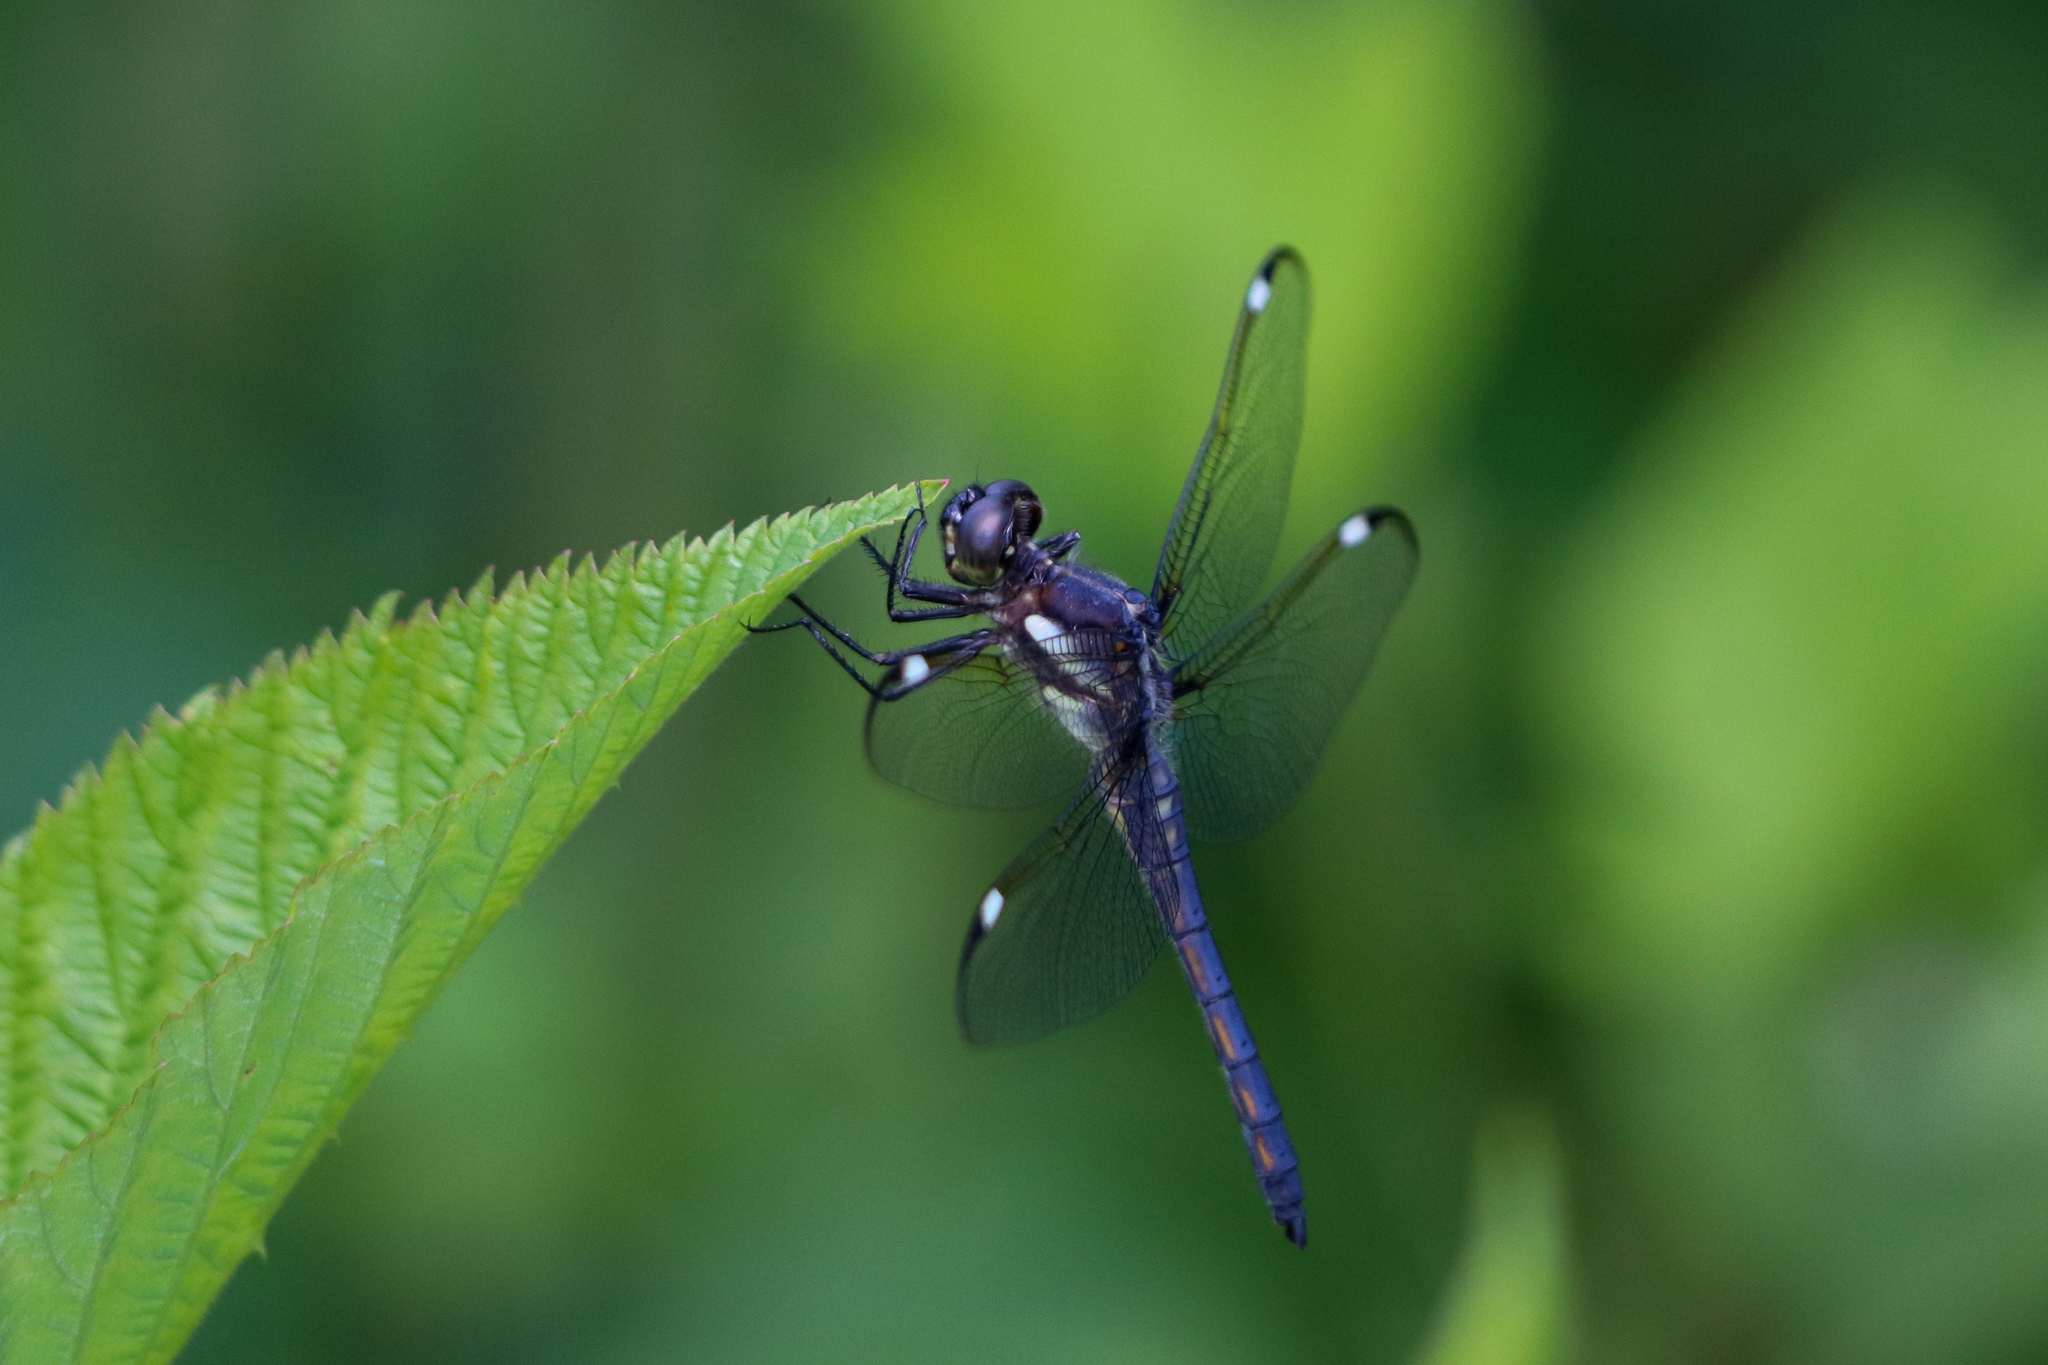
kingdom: Animalia
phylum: Arthropoda
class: Insecta
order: Odonata
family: Libellulidae
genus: Libellula
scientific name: Libellula cyanea
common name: Spangled skimmer
